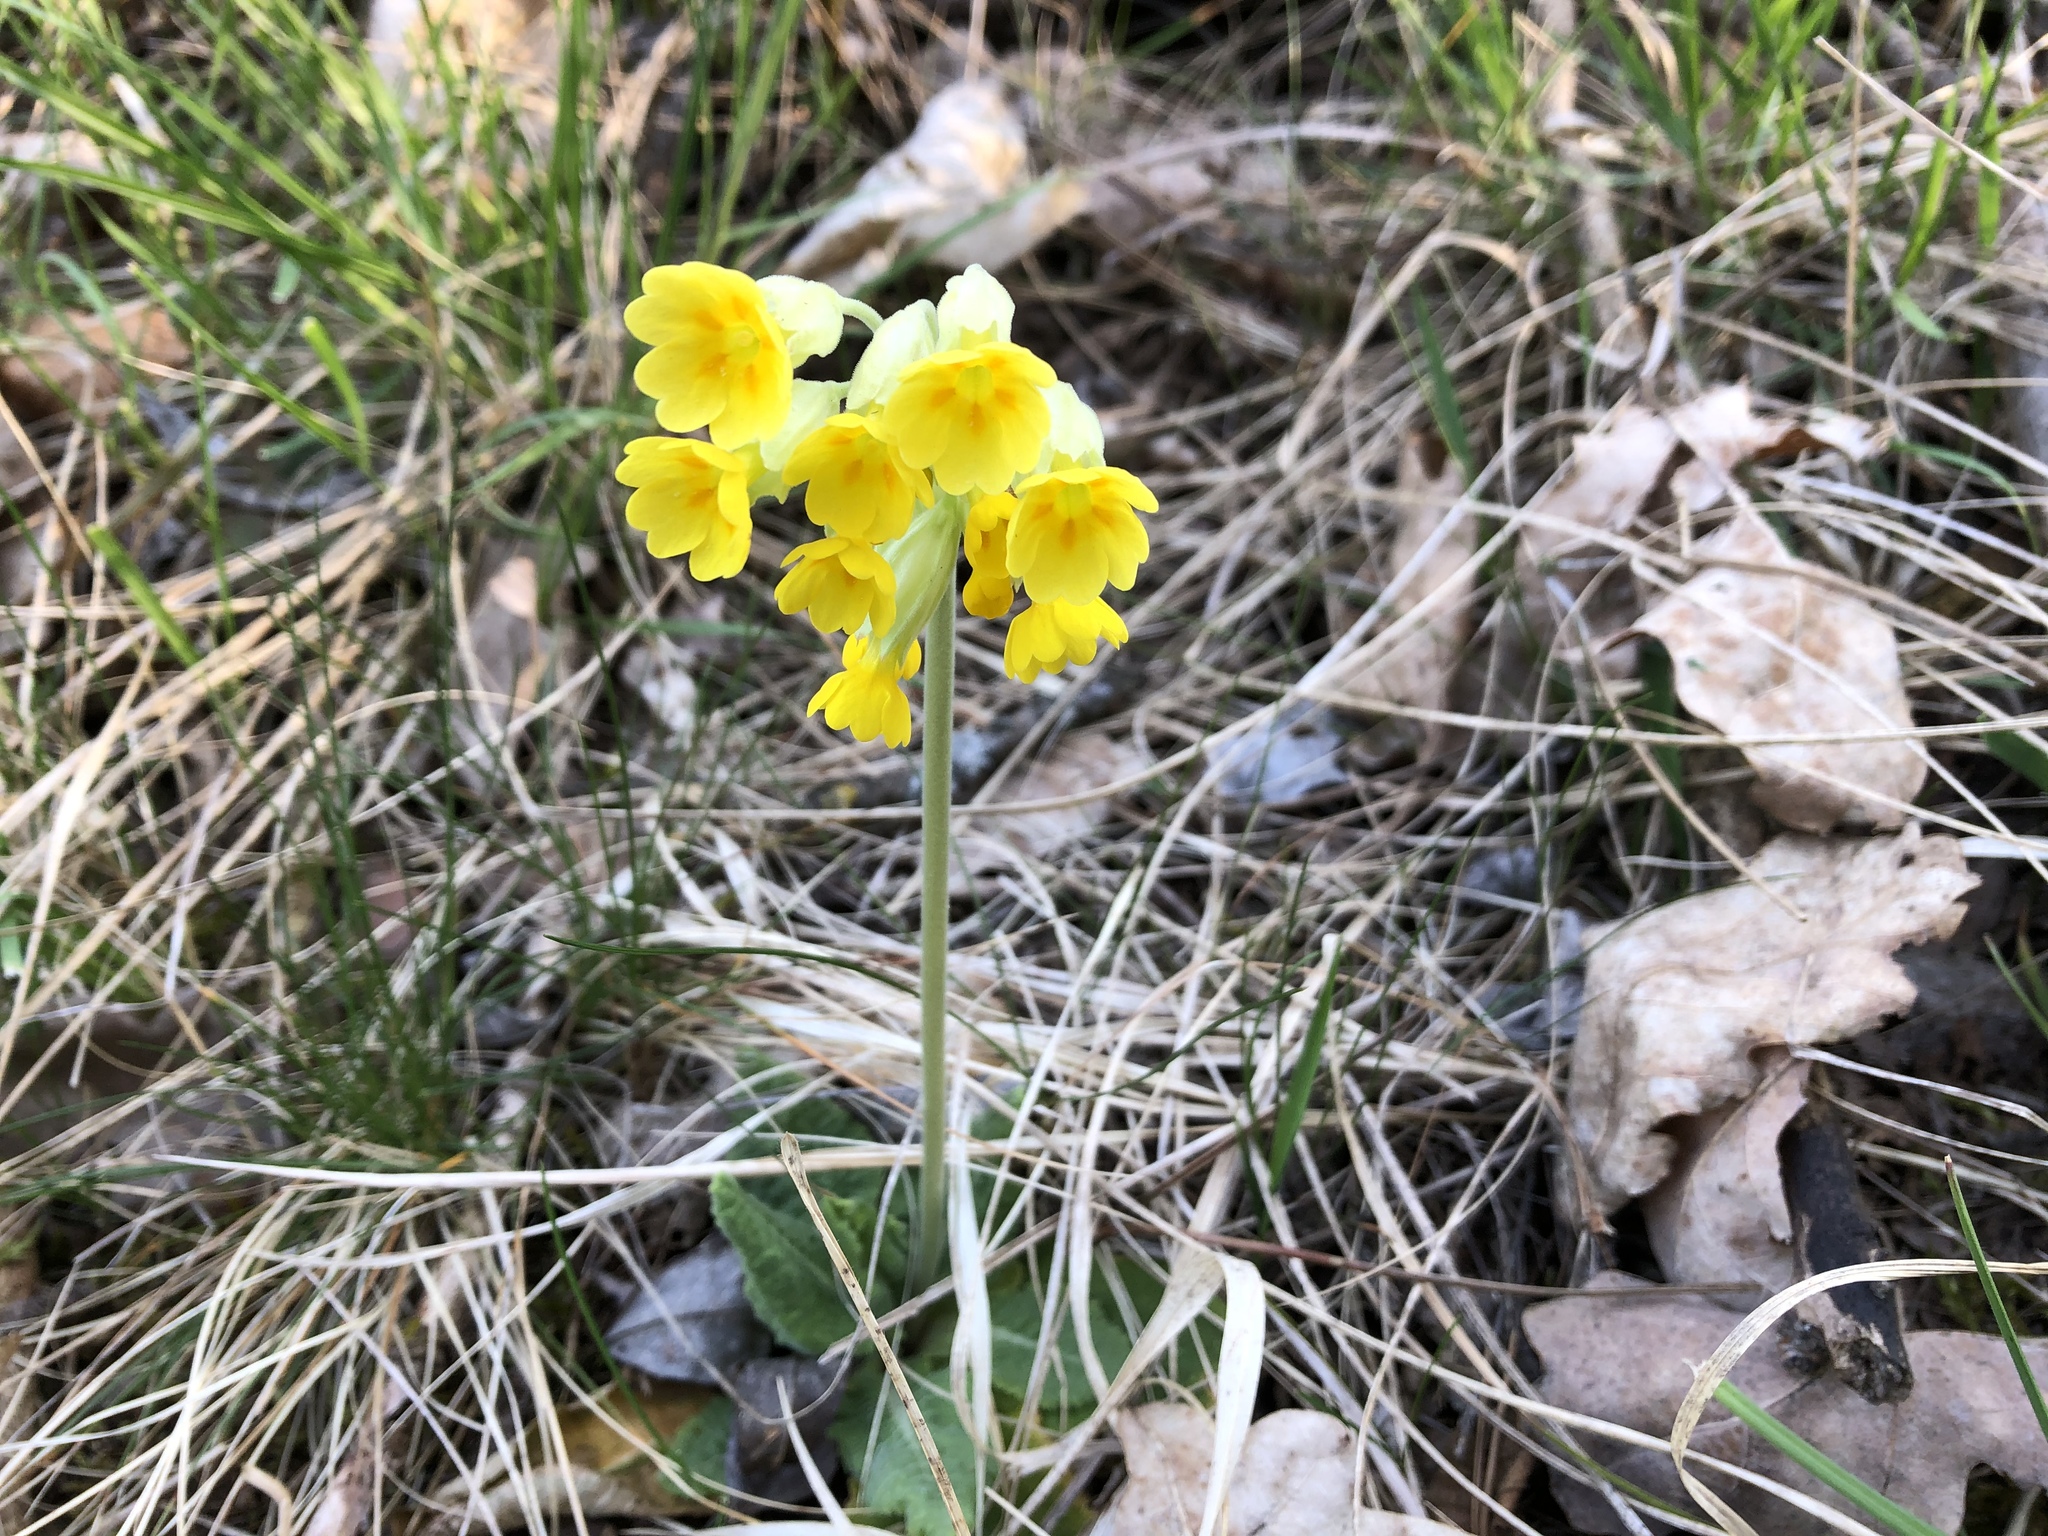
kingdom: Plantae
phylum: Tracheophyta
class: Magnoliopsida
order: Ericales
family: Primulaceae
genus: Primula
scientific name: Primula veris
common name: Cowslip
